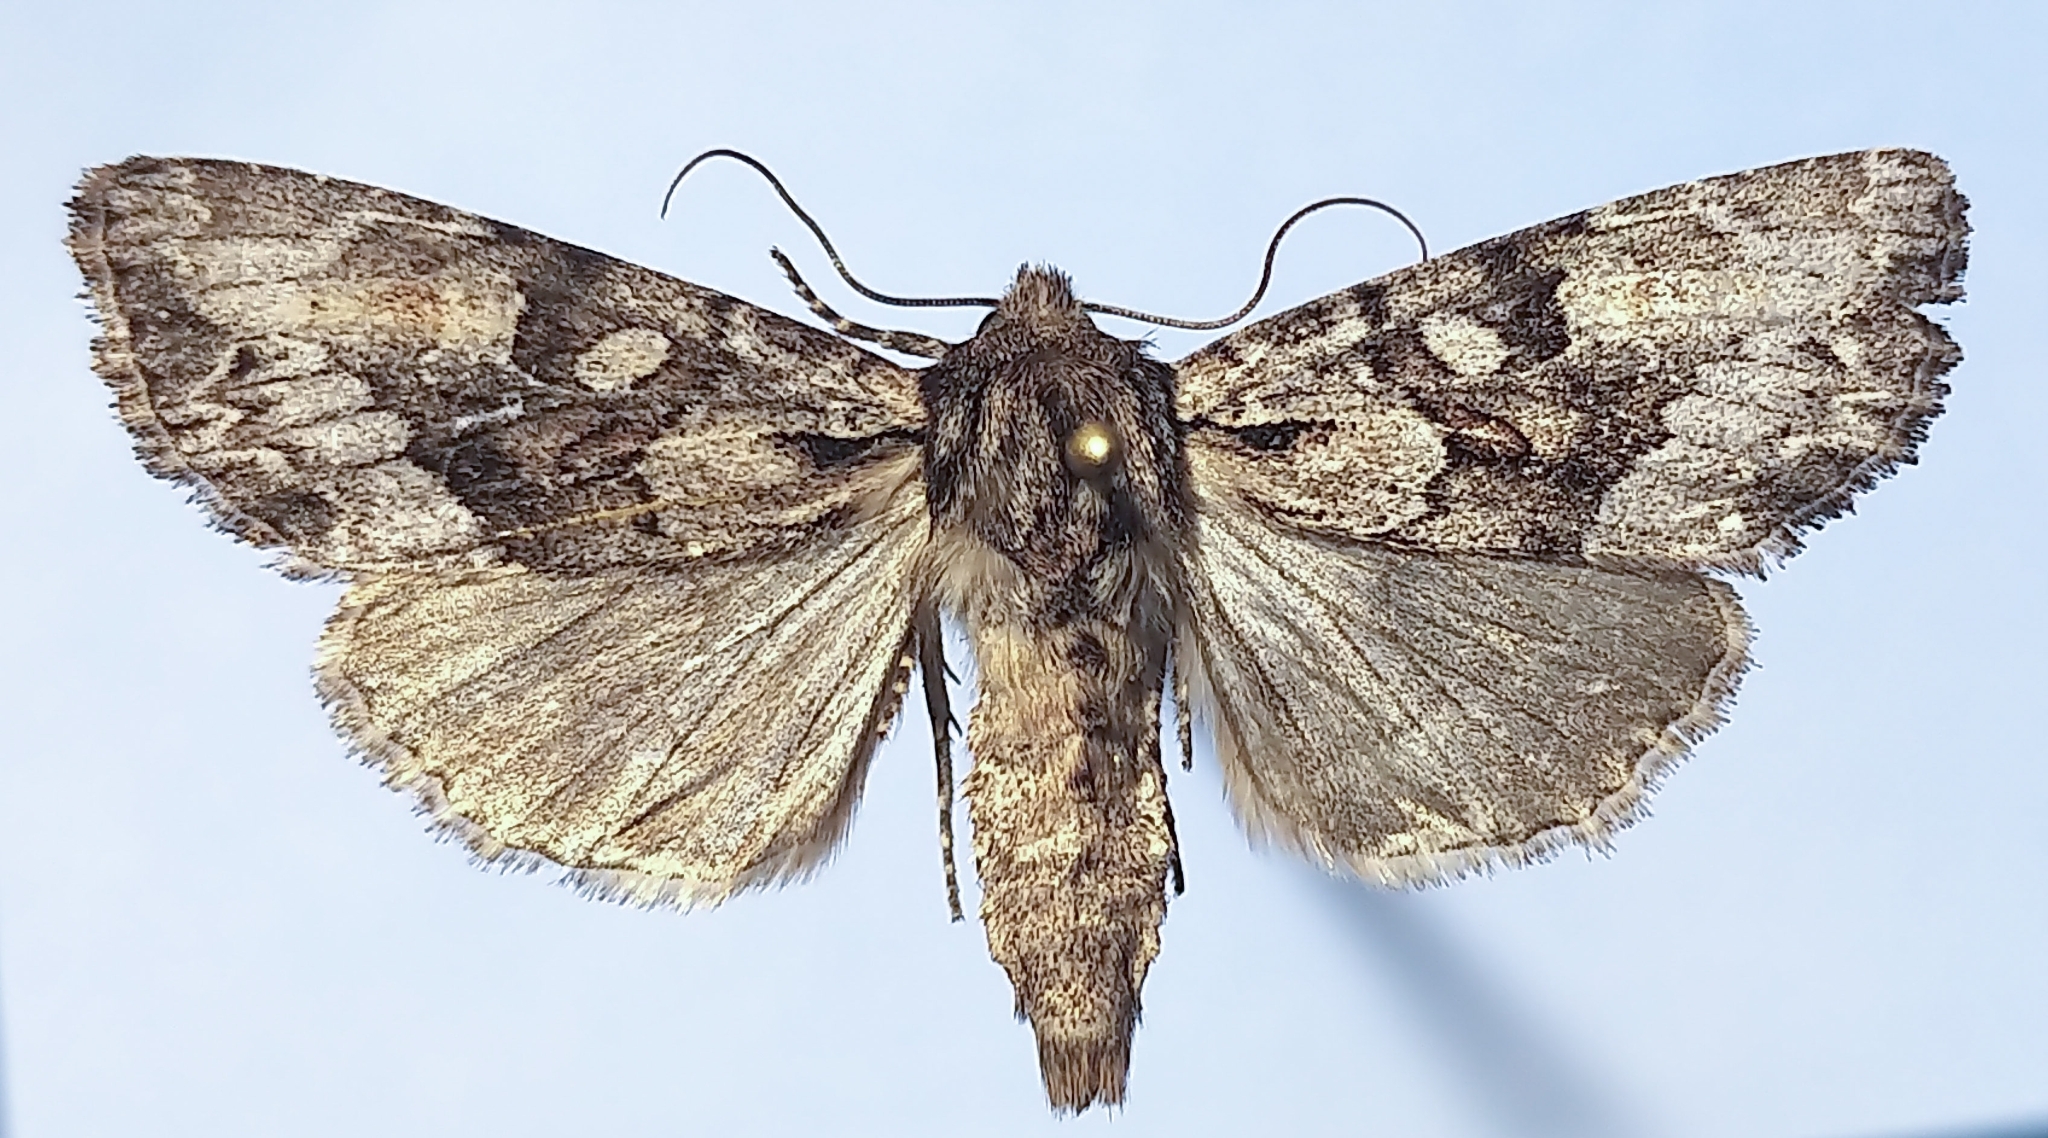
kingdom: Animalia
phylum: Arthropoda
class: Insecta
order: Lepidoptera
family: Noctuidae
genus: Apamea
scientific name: Apamea centralis
